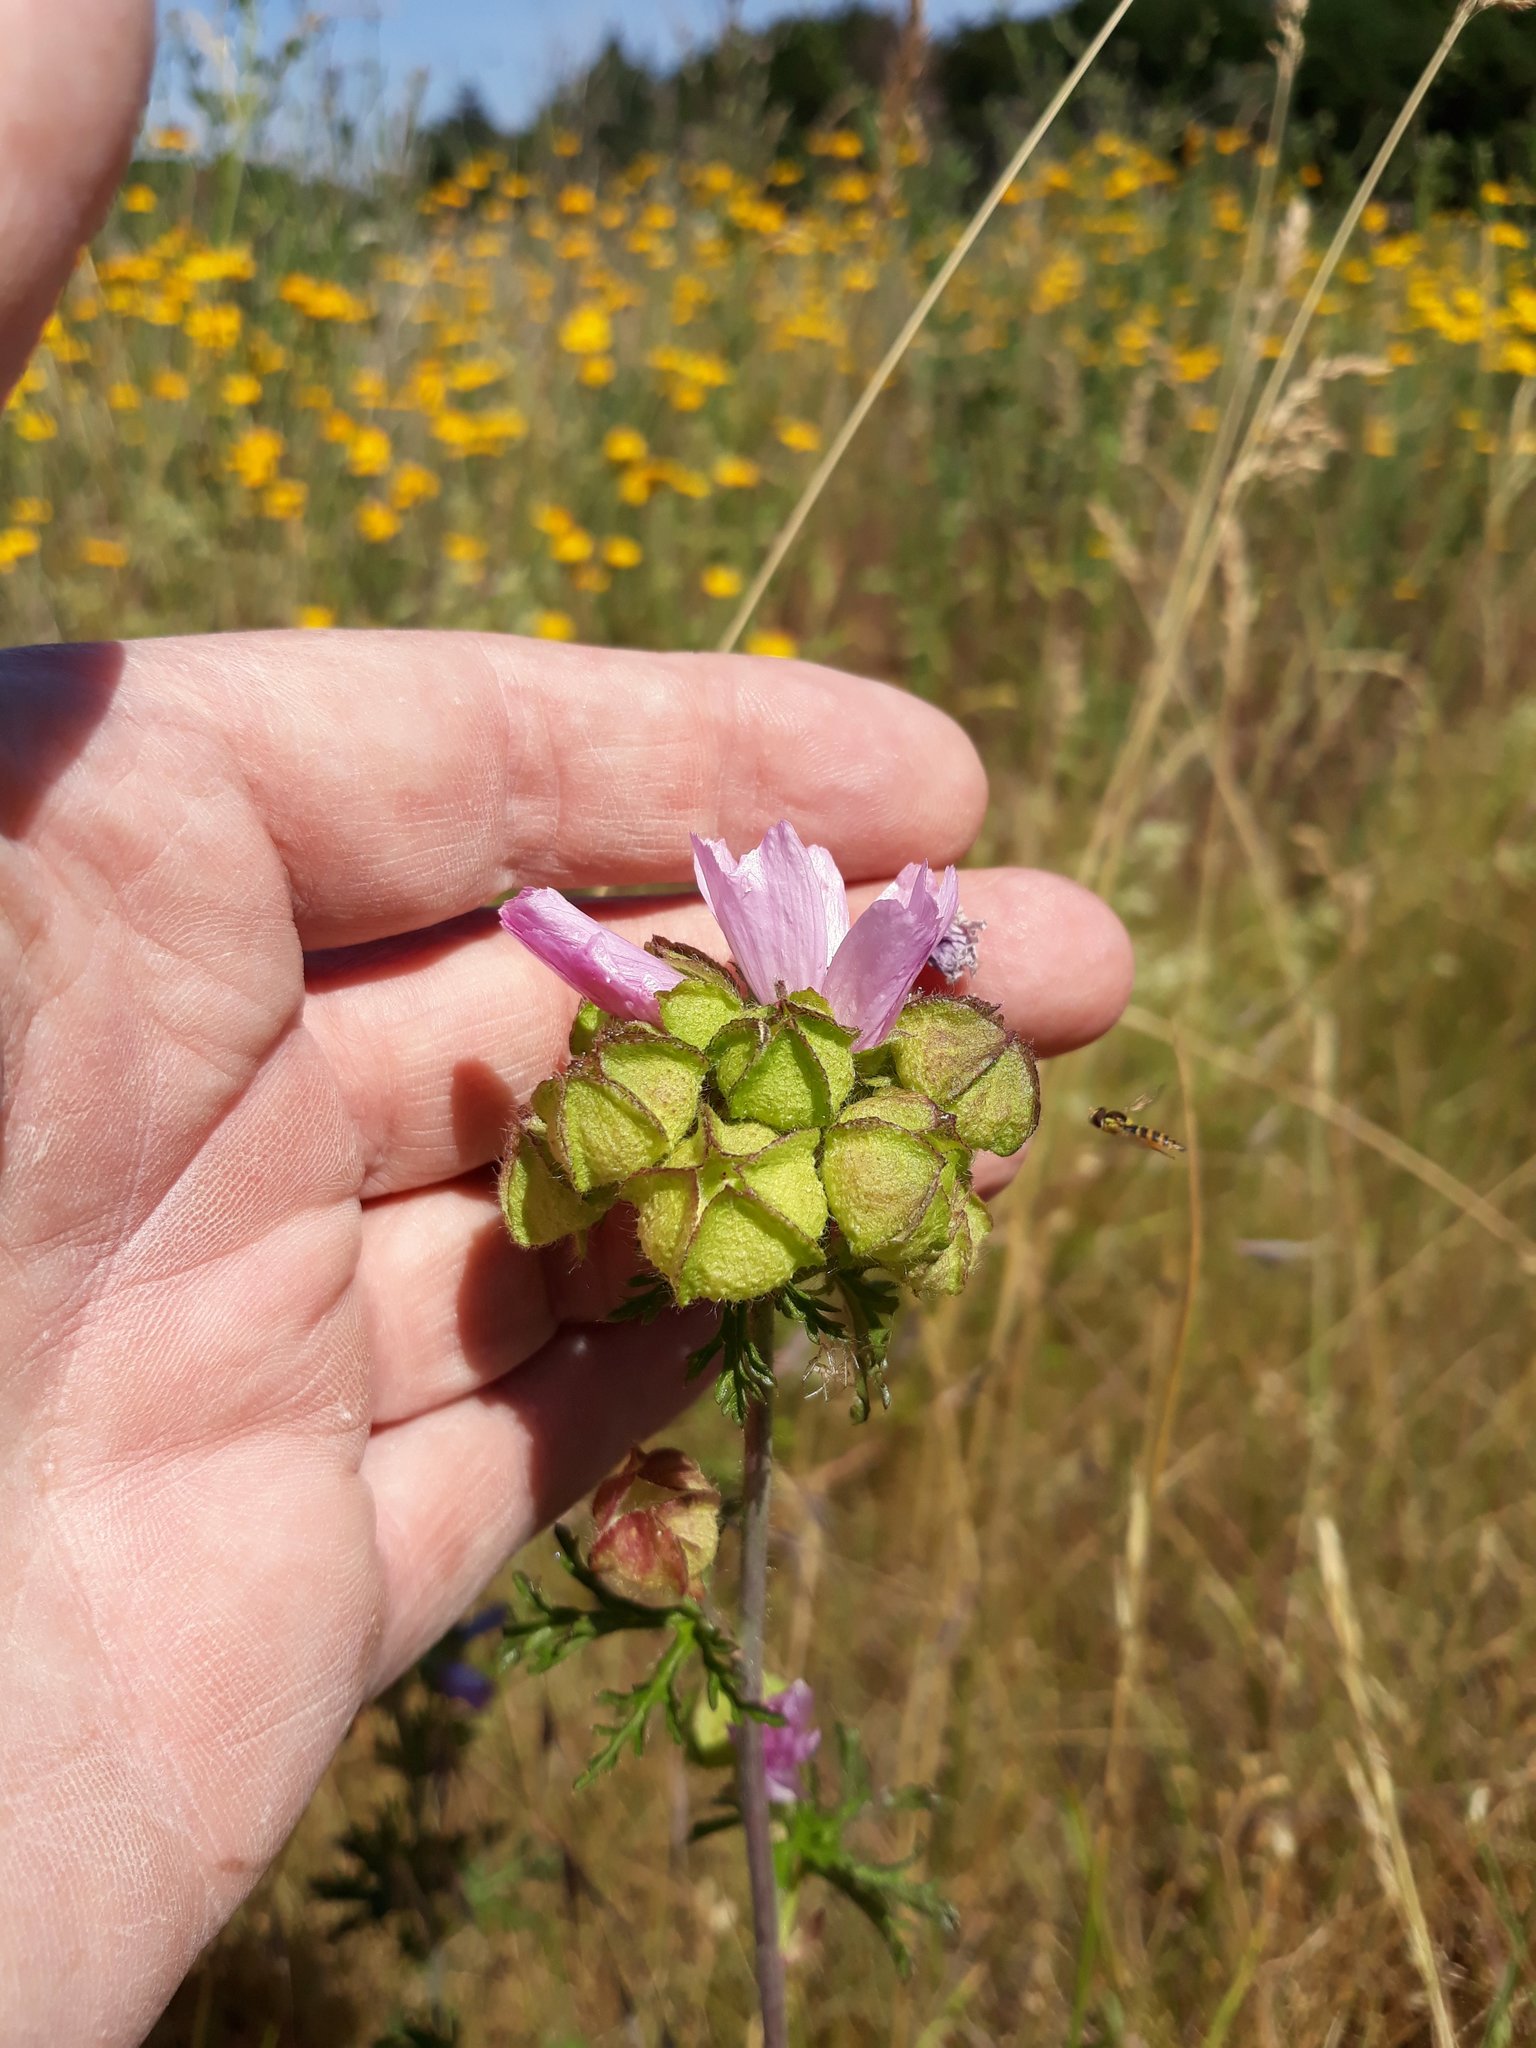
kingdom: Plantae
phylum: Tracheophyta
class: Magnoliopsida
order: Malvales
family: Malvaceae
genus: Malva
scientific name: Malva moschata
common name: Musk mallow
